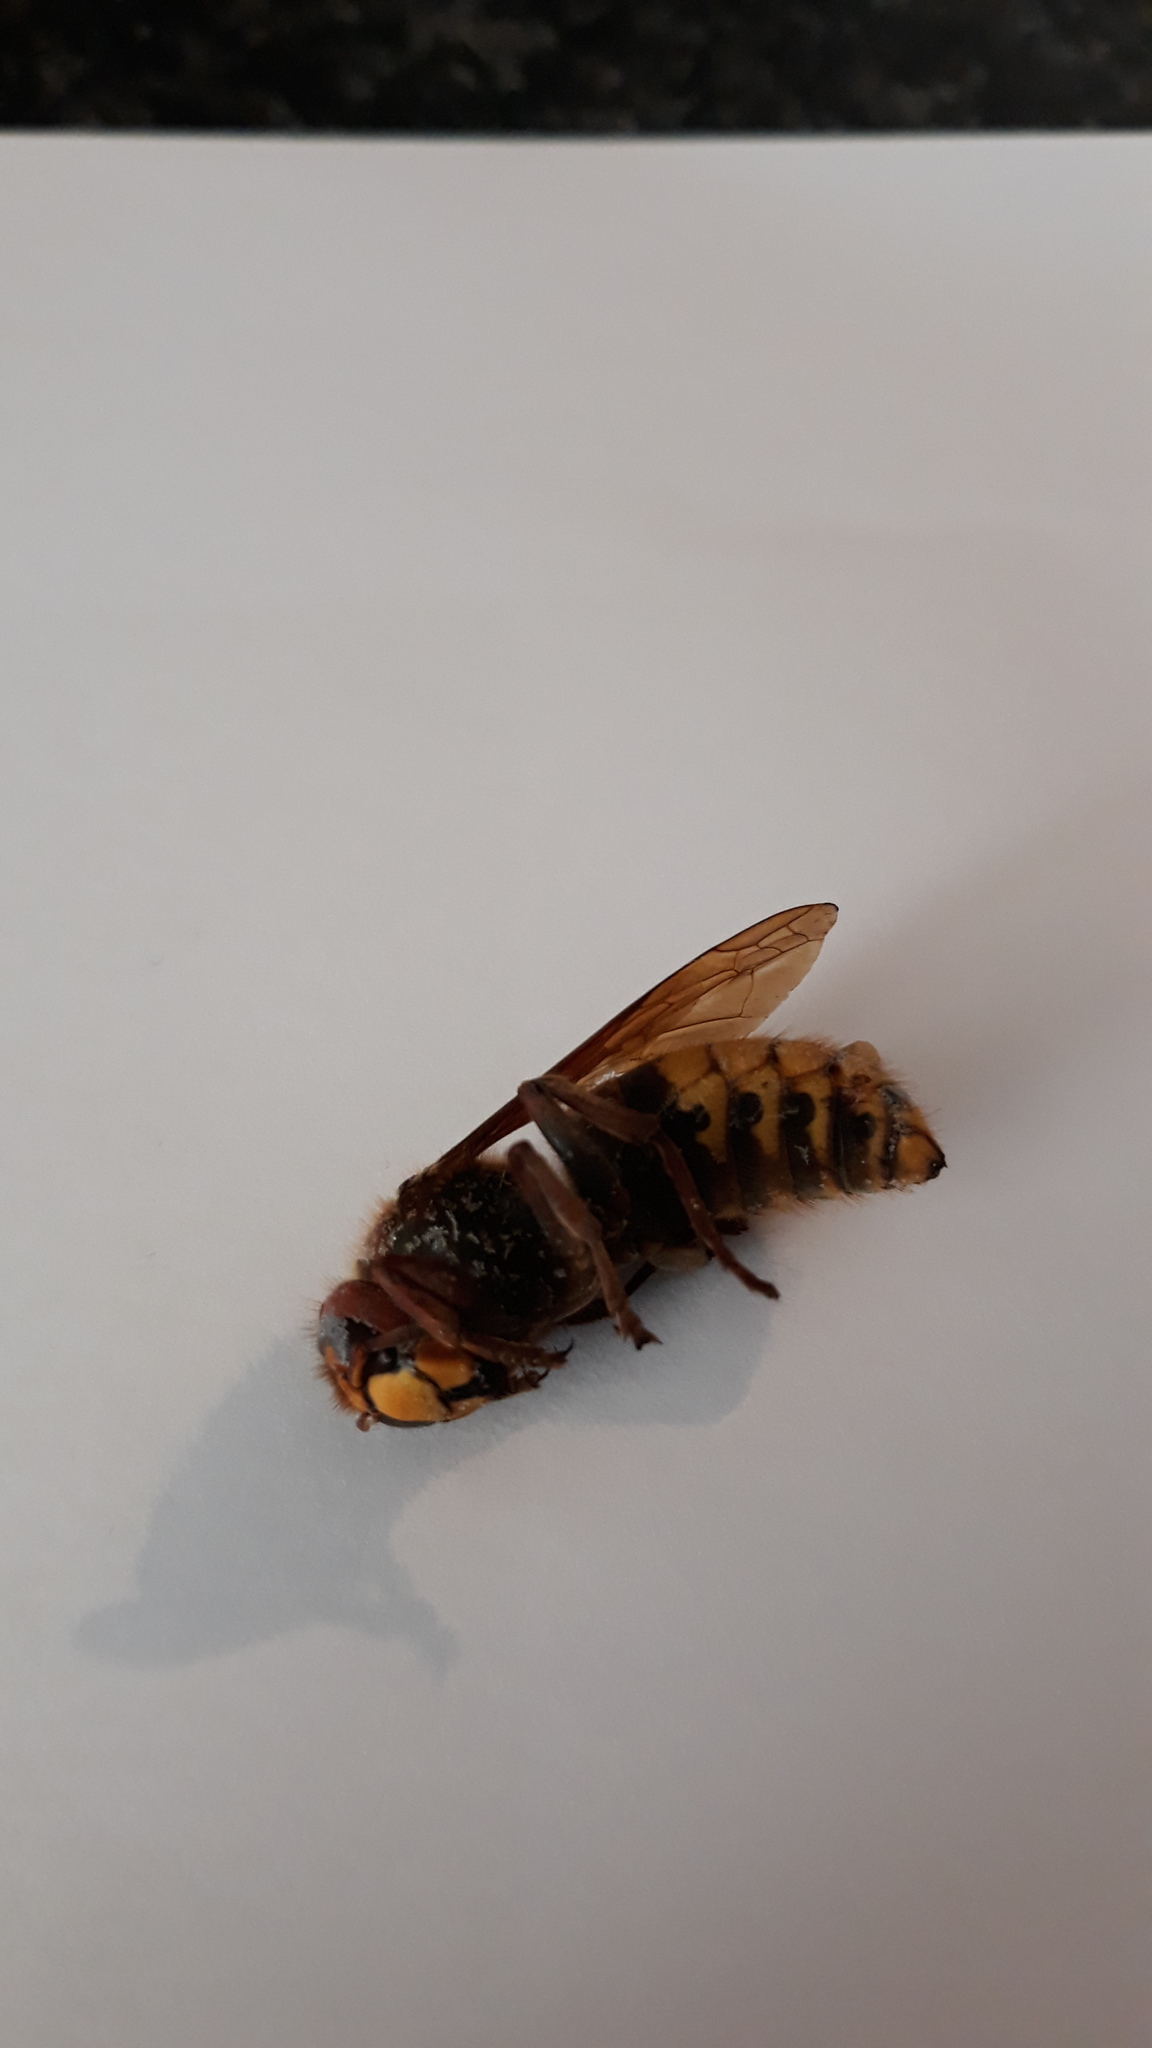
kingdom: Animalia
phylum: Arthropoda
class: Insecta
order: Hymenoptera
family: Vespidae
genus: Vespa
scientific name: Vespa crabro
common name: Hornet
